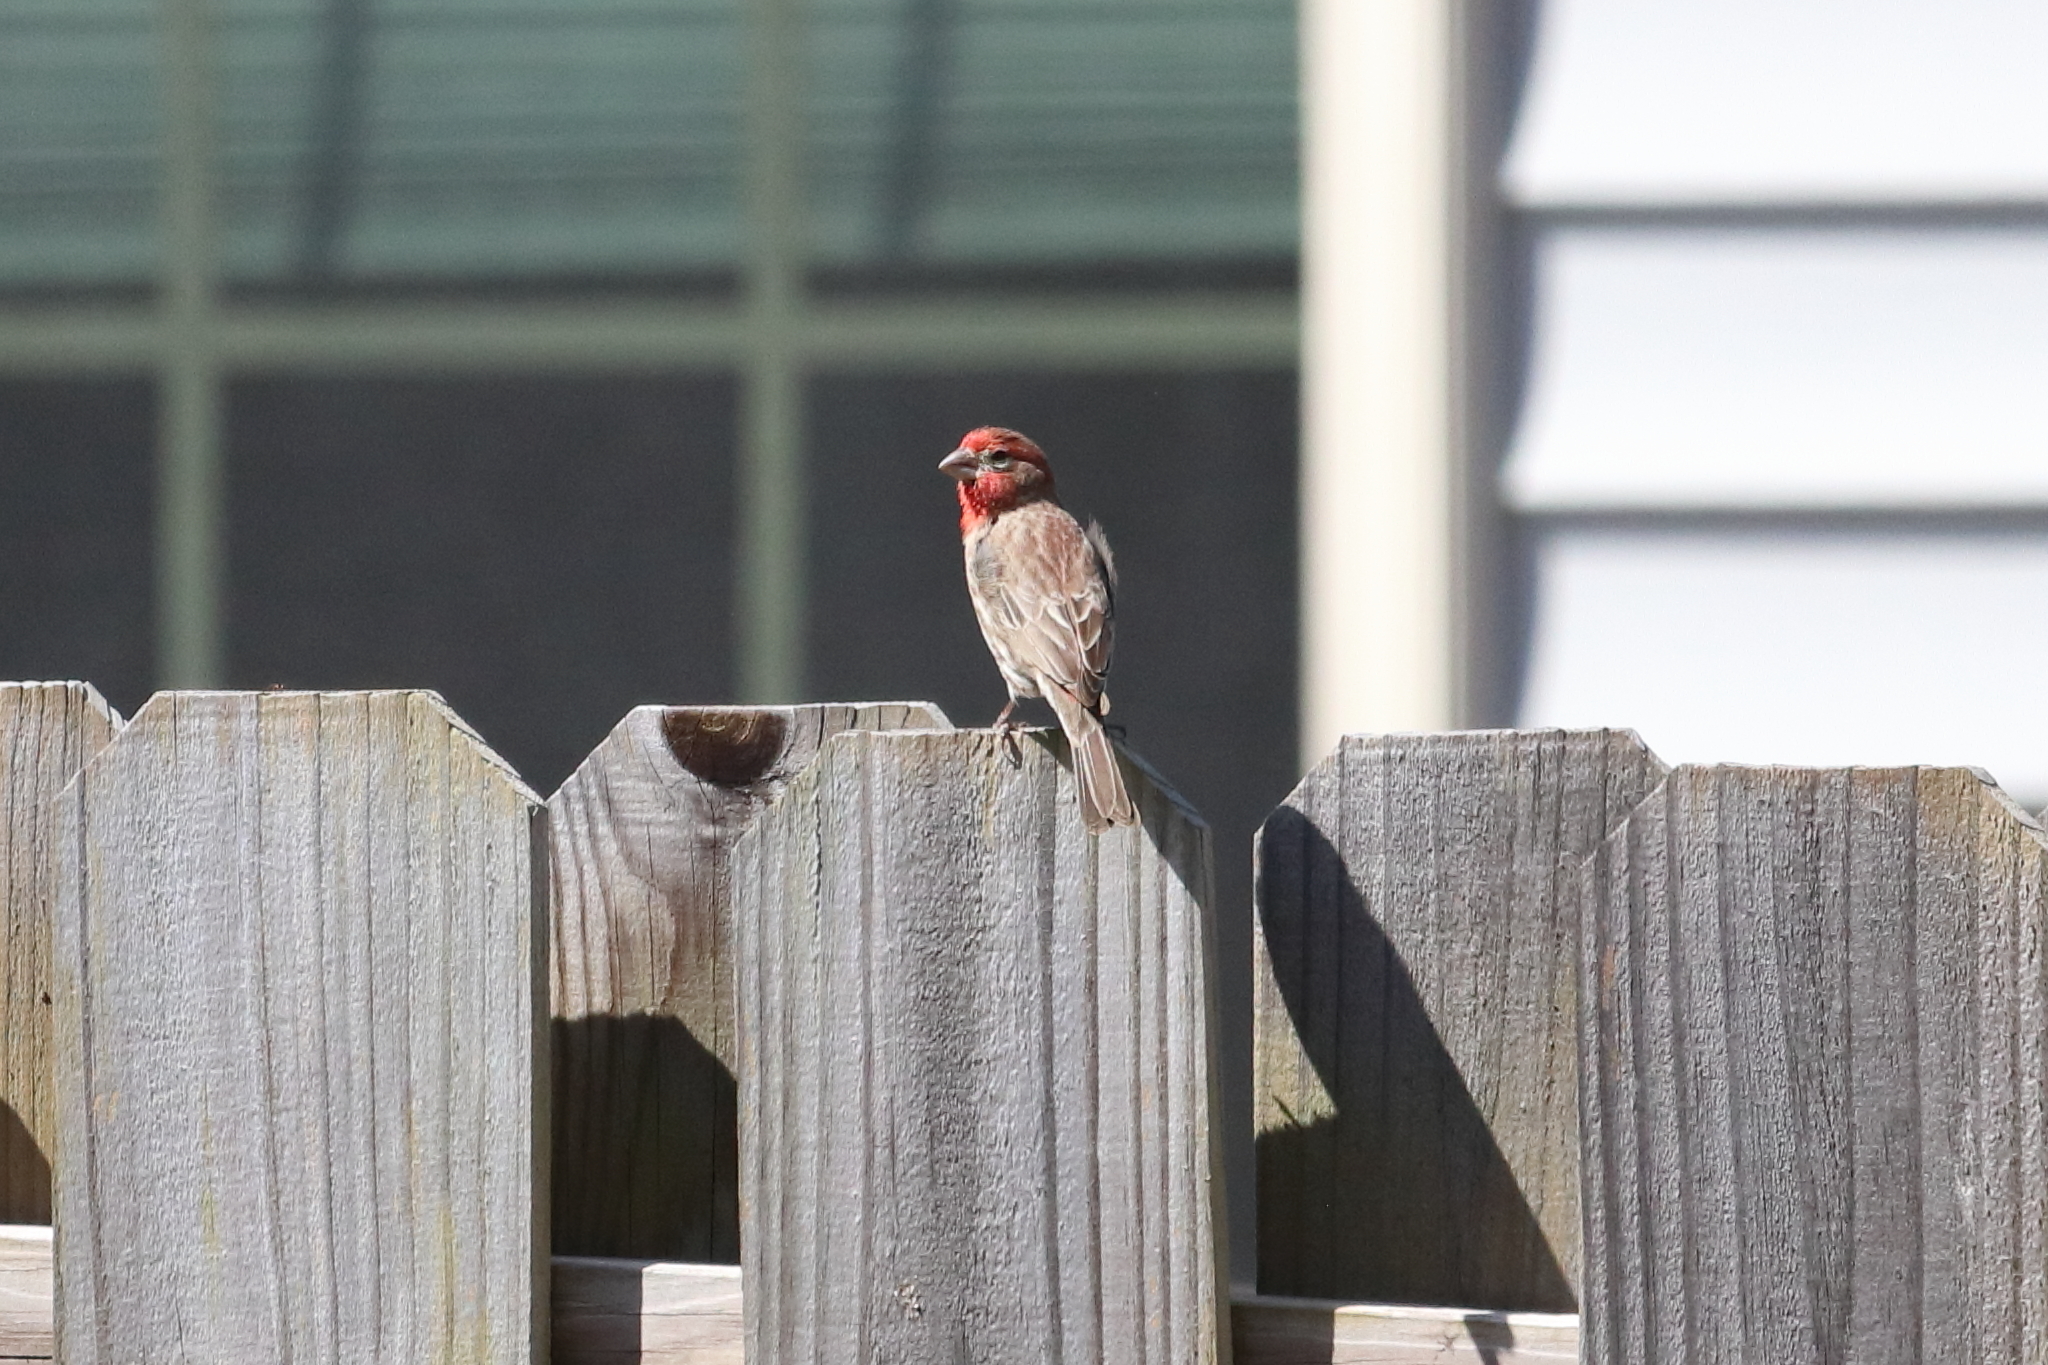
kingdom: Animalia
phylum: Chordata
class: Aves
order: Passeriformes
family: Fringillidae
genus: Haemorhous
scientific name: Haemorhous mexicanus
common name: House finch
